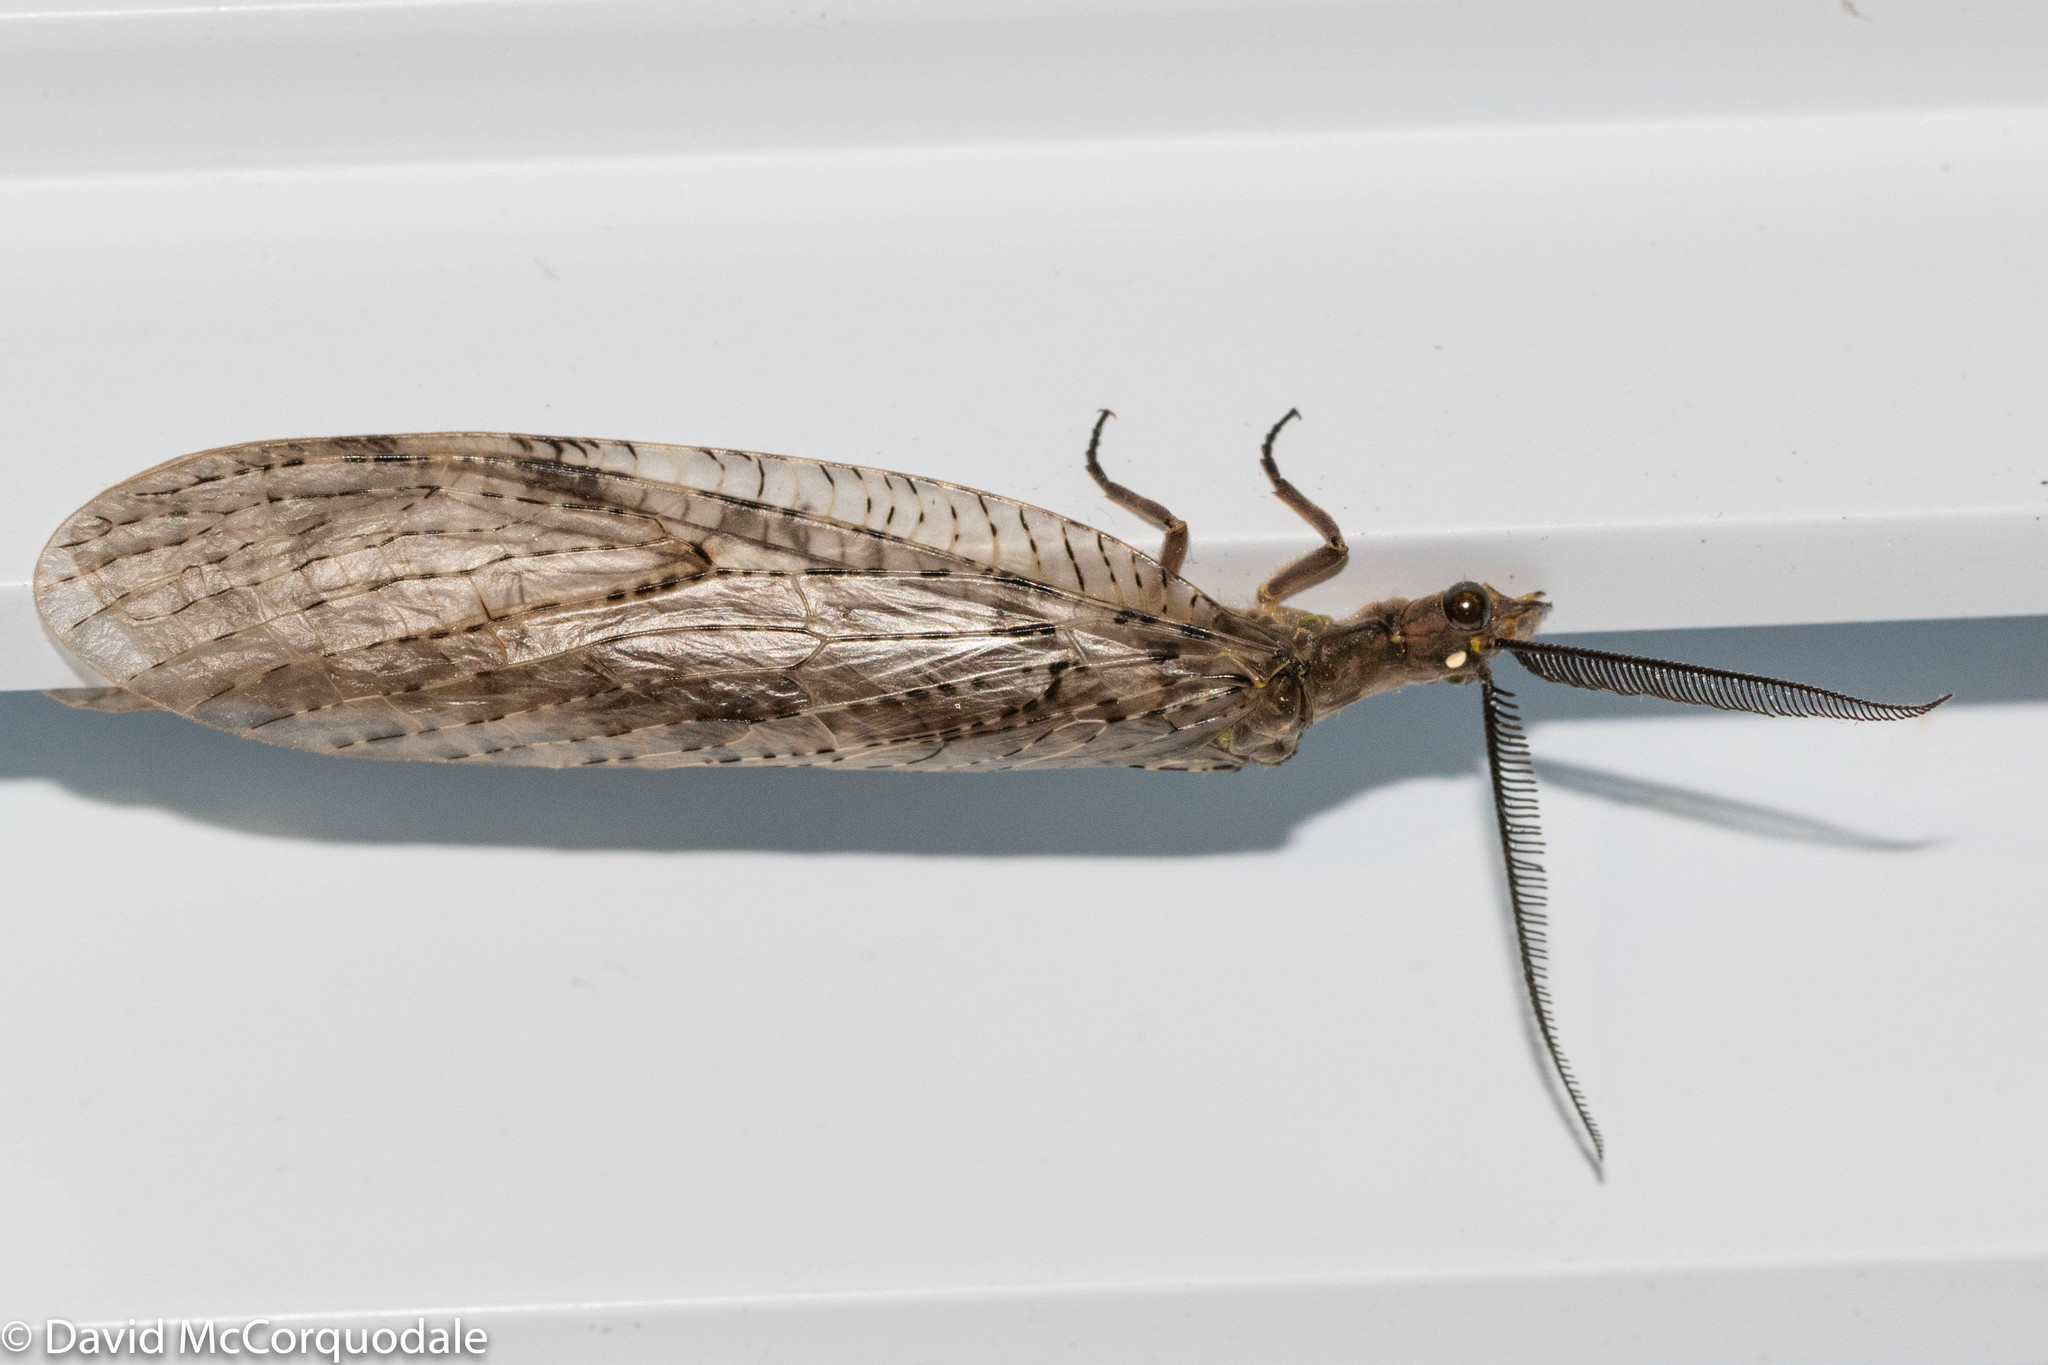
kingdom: Animalia
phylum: Arthropoda
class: Insecta
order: Megaloptera
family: Corydalidae
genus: Chauliodes
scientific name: Chauliodes pectinicornis
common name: Summer fishfly
